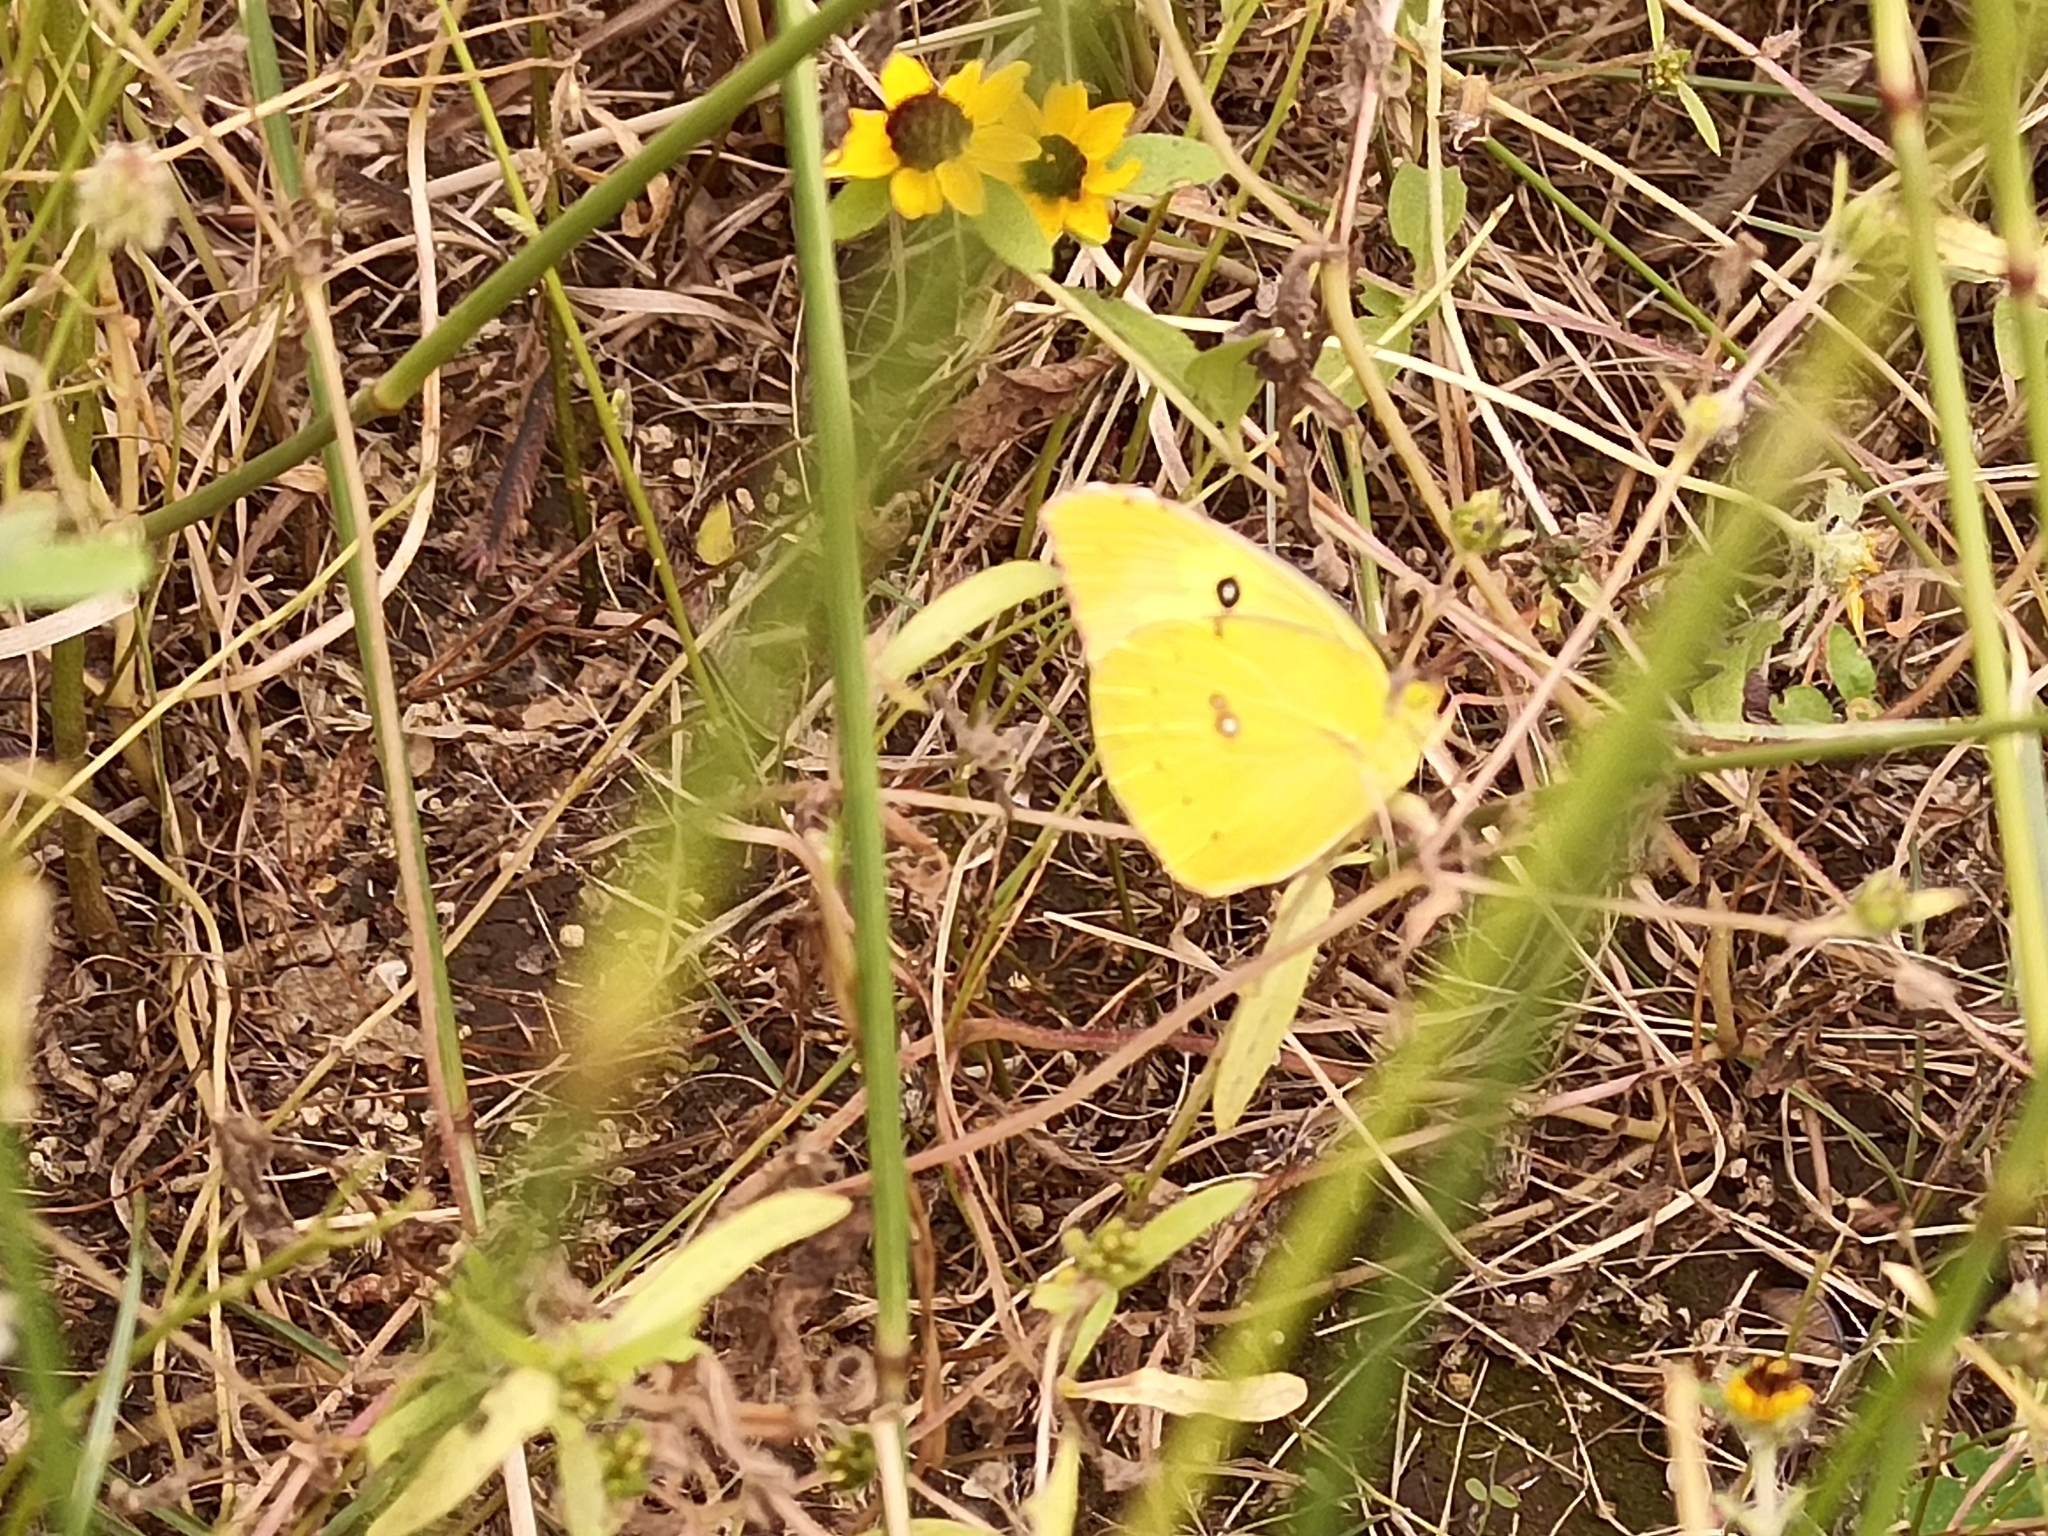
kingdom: Animalia
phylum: Arthropoda
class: Insecta
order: Lepidoptera
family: Pieridae
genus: Zerene
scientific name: Zerene cesonia
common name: Southern dogface
